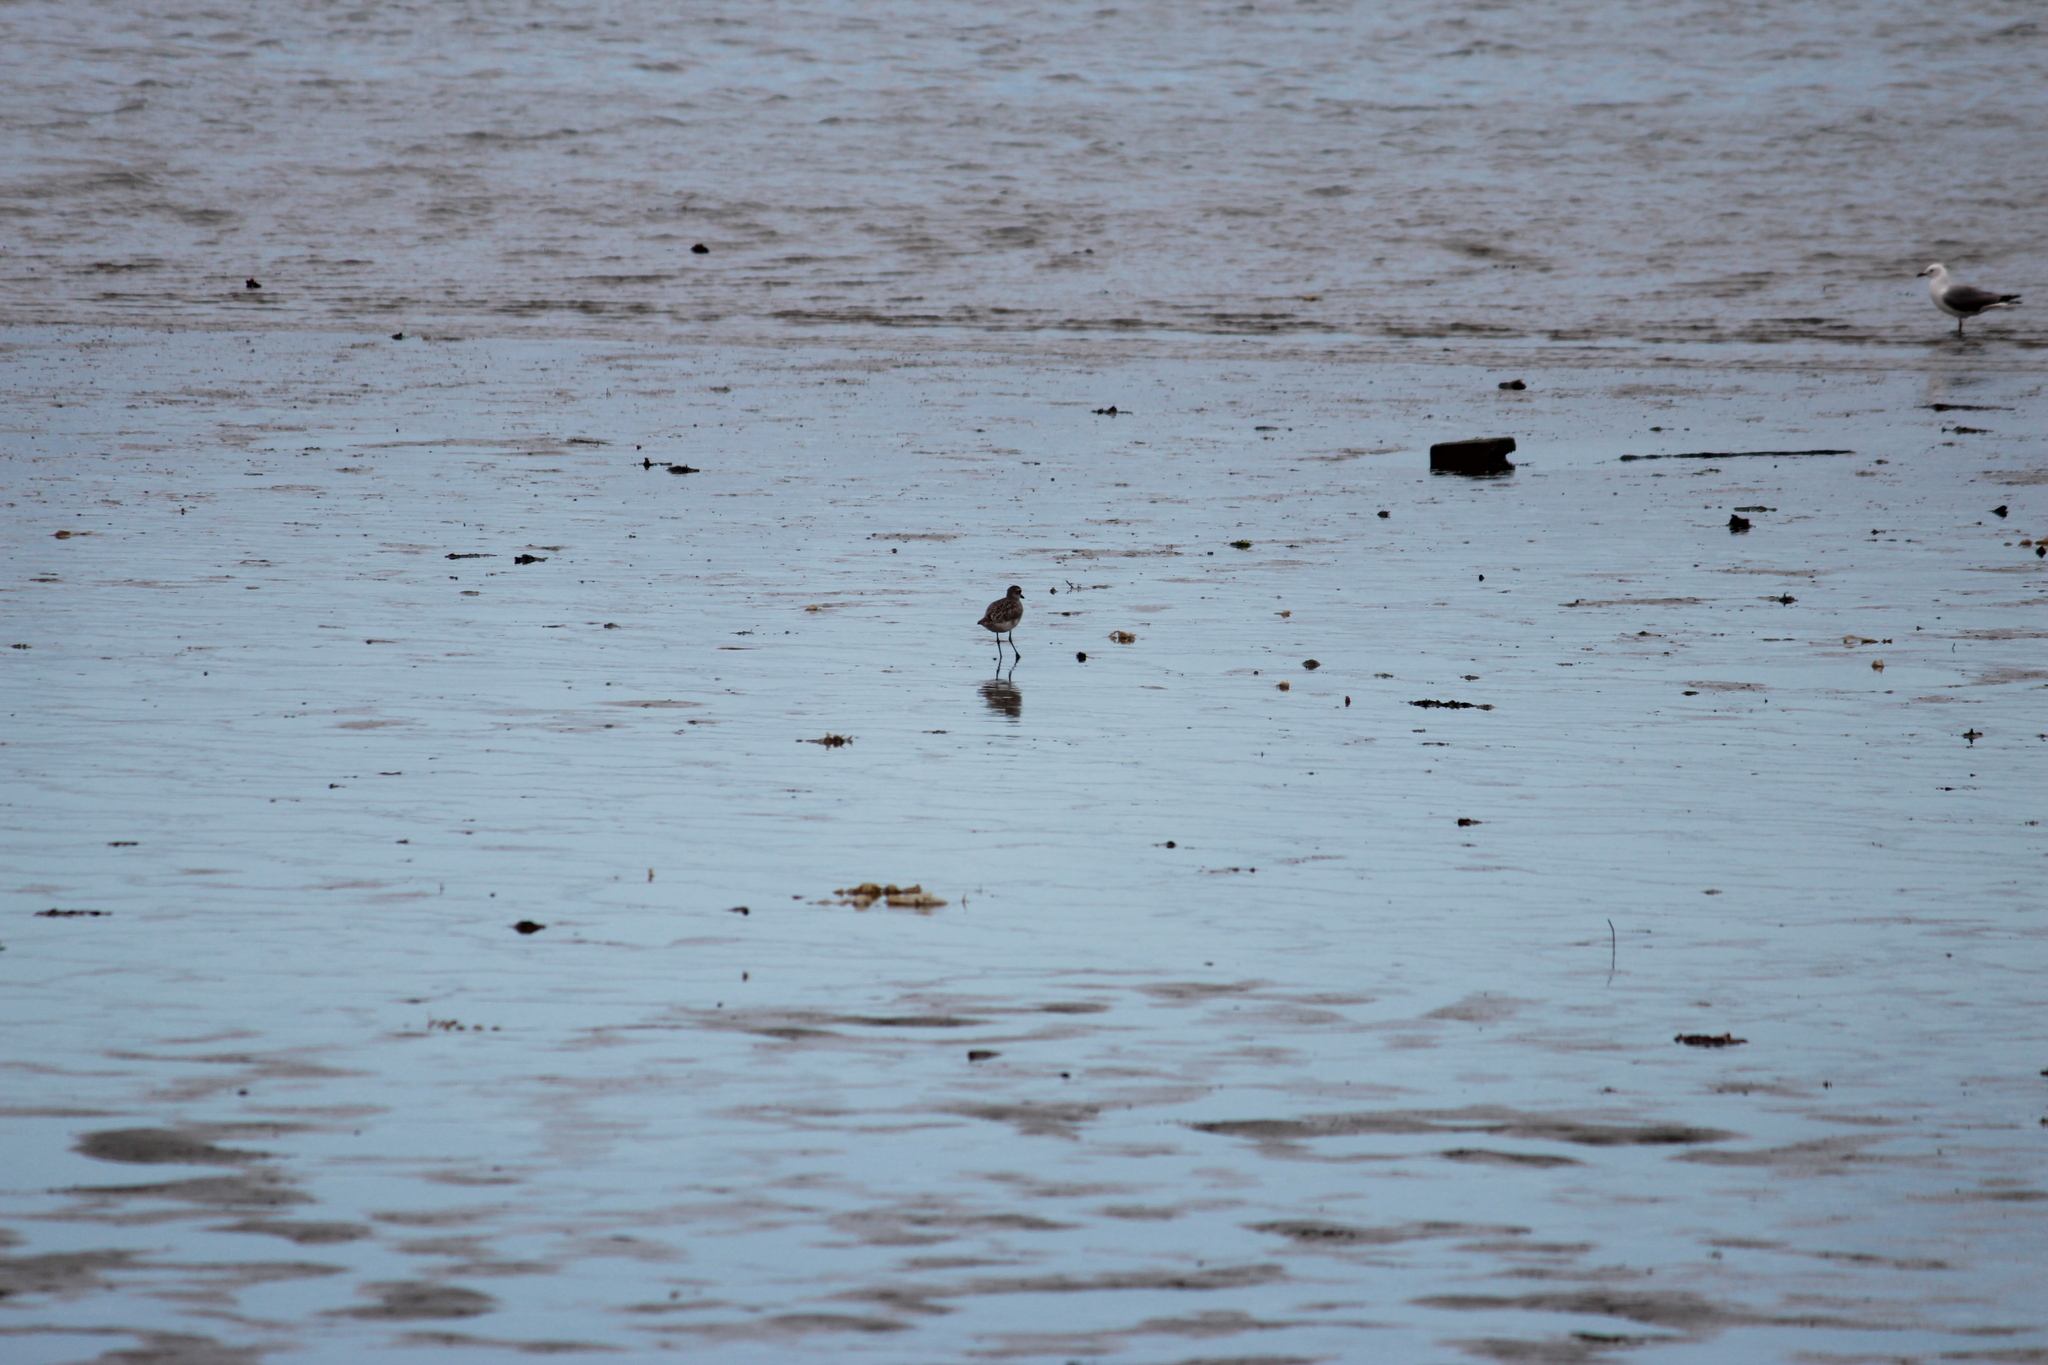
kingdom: Animalia
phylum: Chordata
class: Aves
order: Charadriiformes
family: Charadriidae
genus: Pluvialis
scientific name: Pluvialis squatarola
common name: Grey plover
